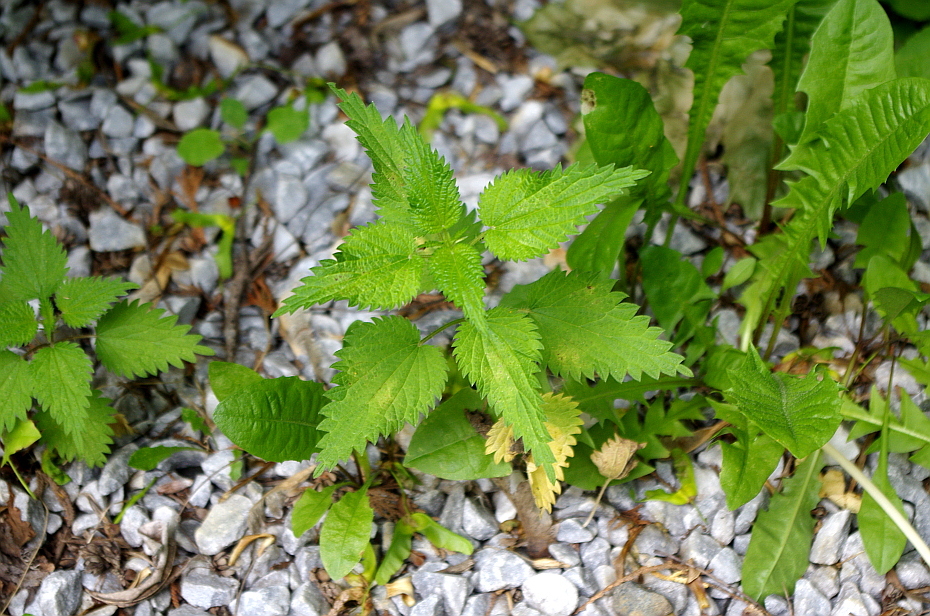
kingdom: Plantae
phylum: Tracheophyta
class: Magnoliopsida
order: Rosales
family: Urticaceae
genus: Urtica
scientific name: Urtica dioica
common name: Common nettle
